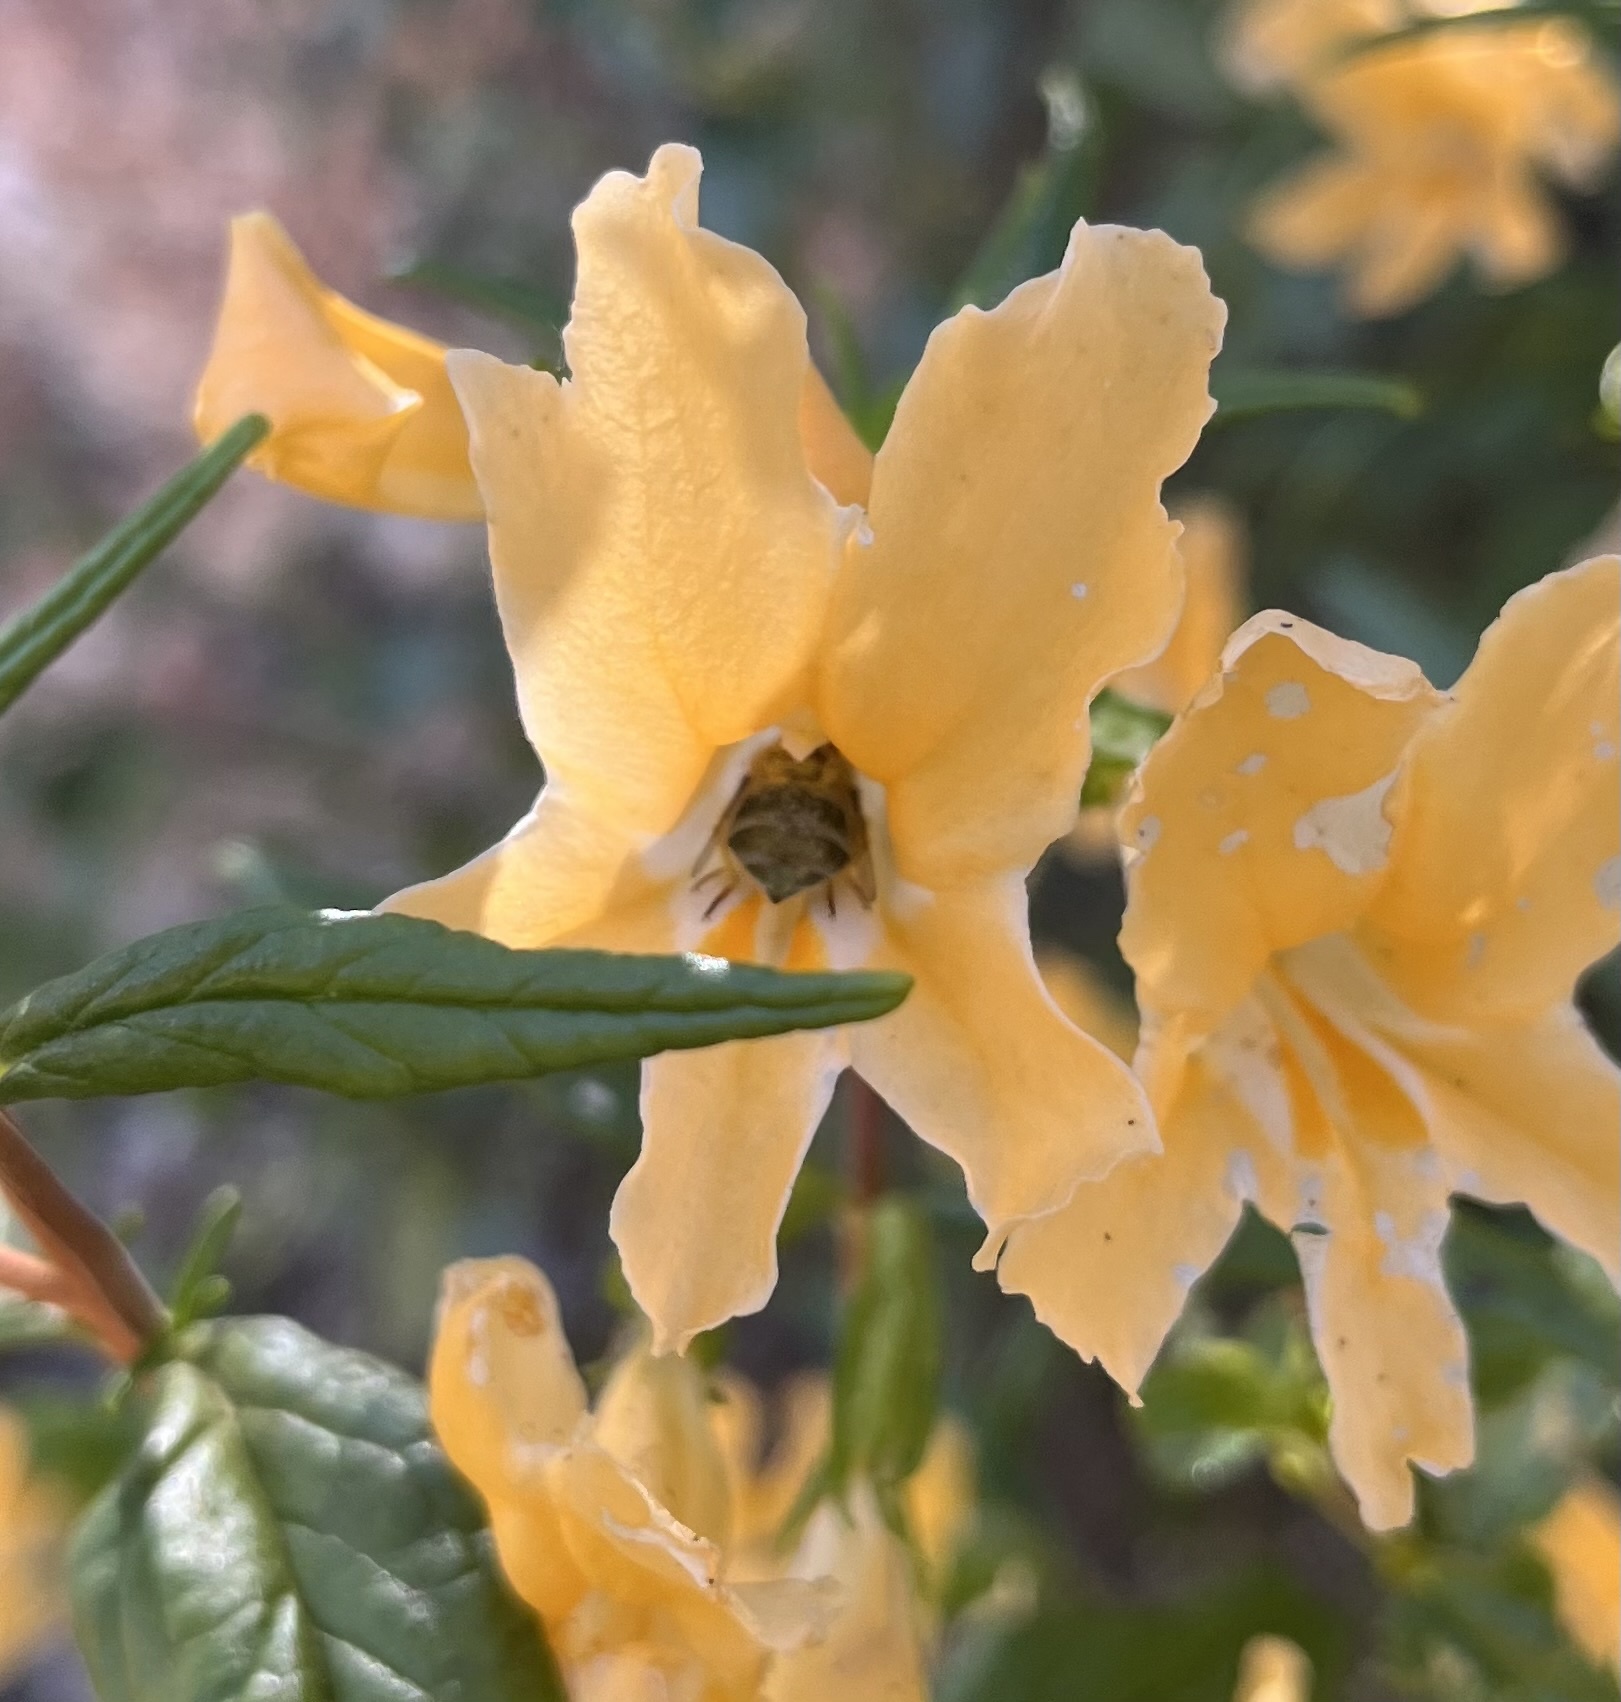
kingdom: Animalia
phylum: Arthropoda
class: Insecta
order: Diptera
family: Acroceridae
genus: Eulonchus
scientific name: Eulonchus smaragdinus
